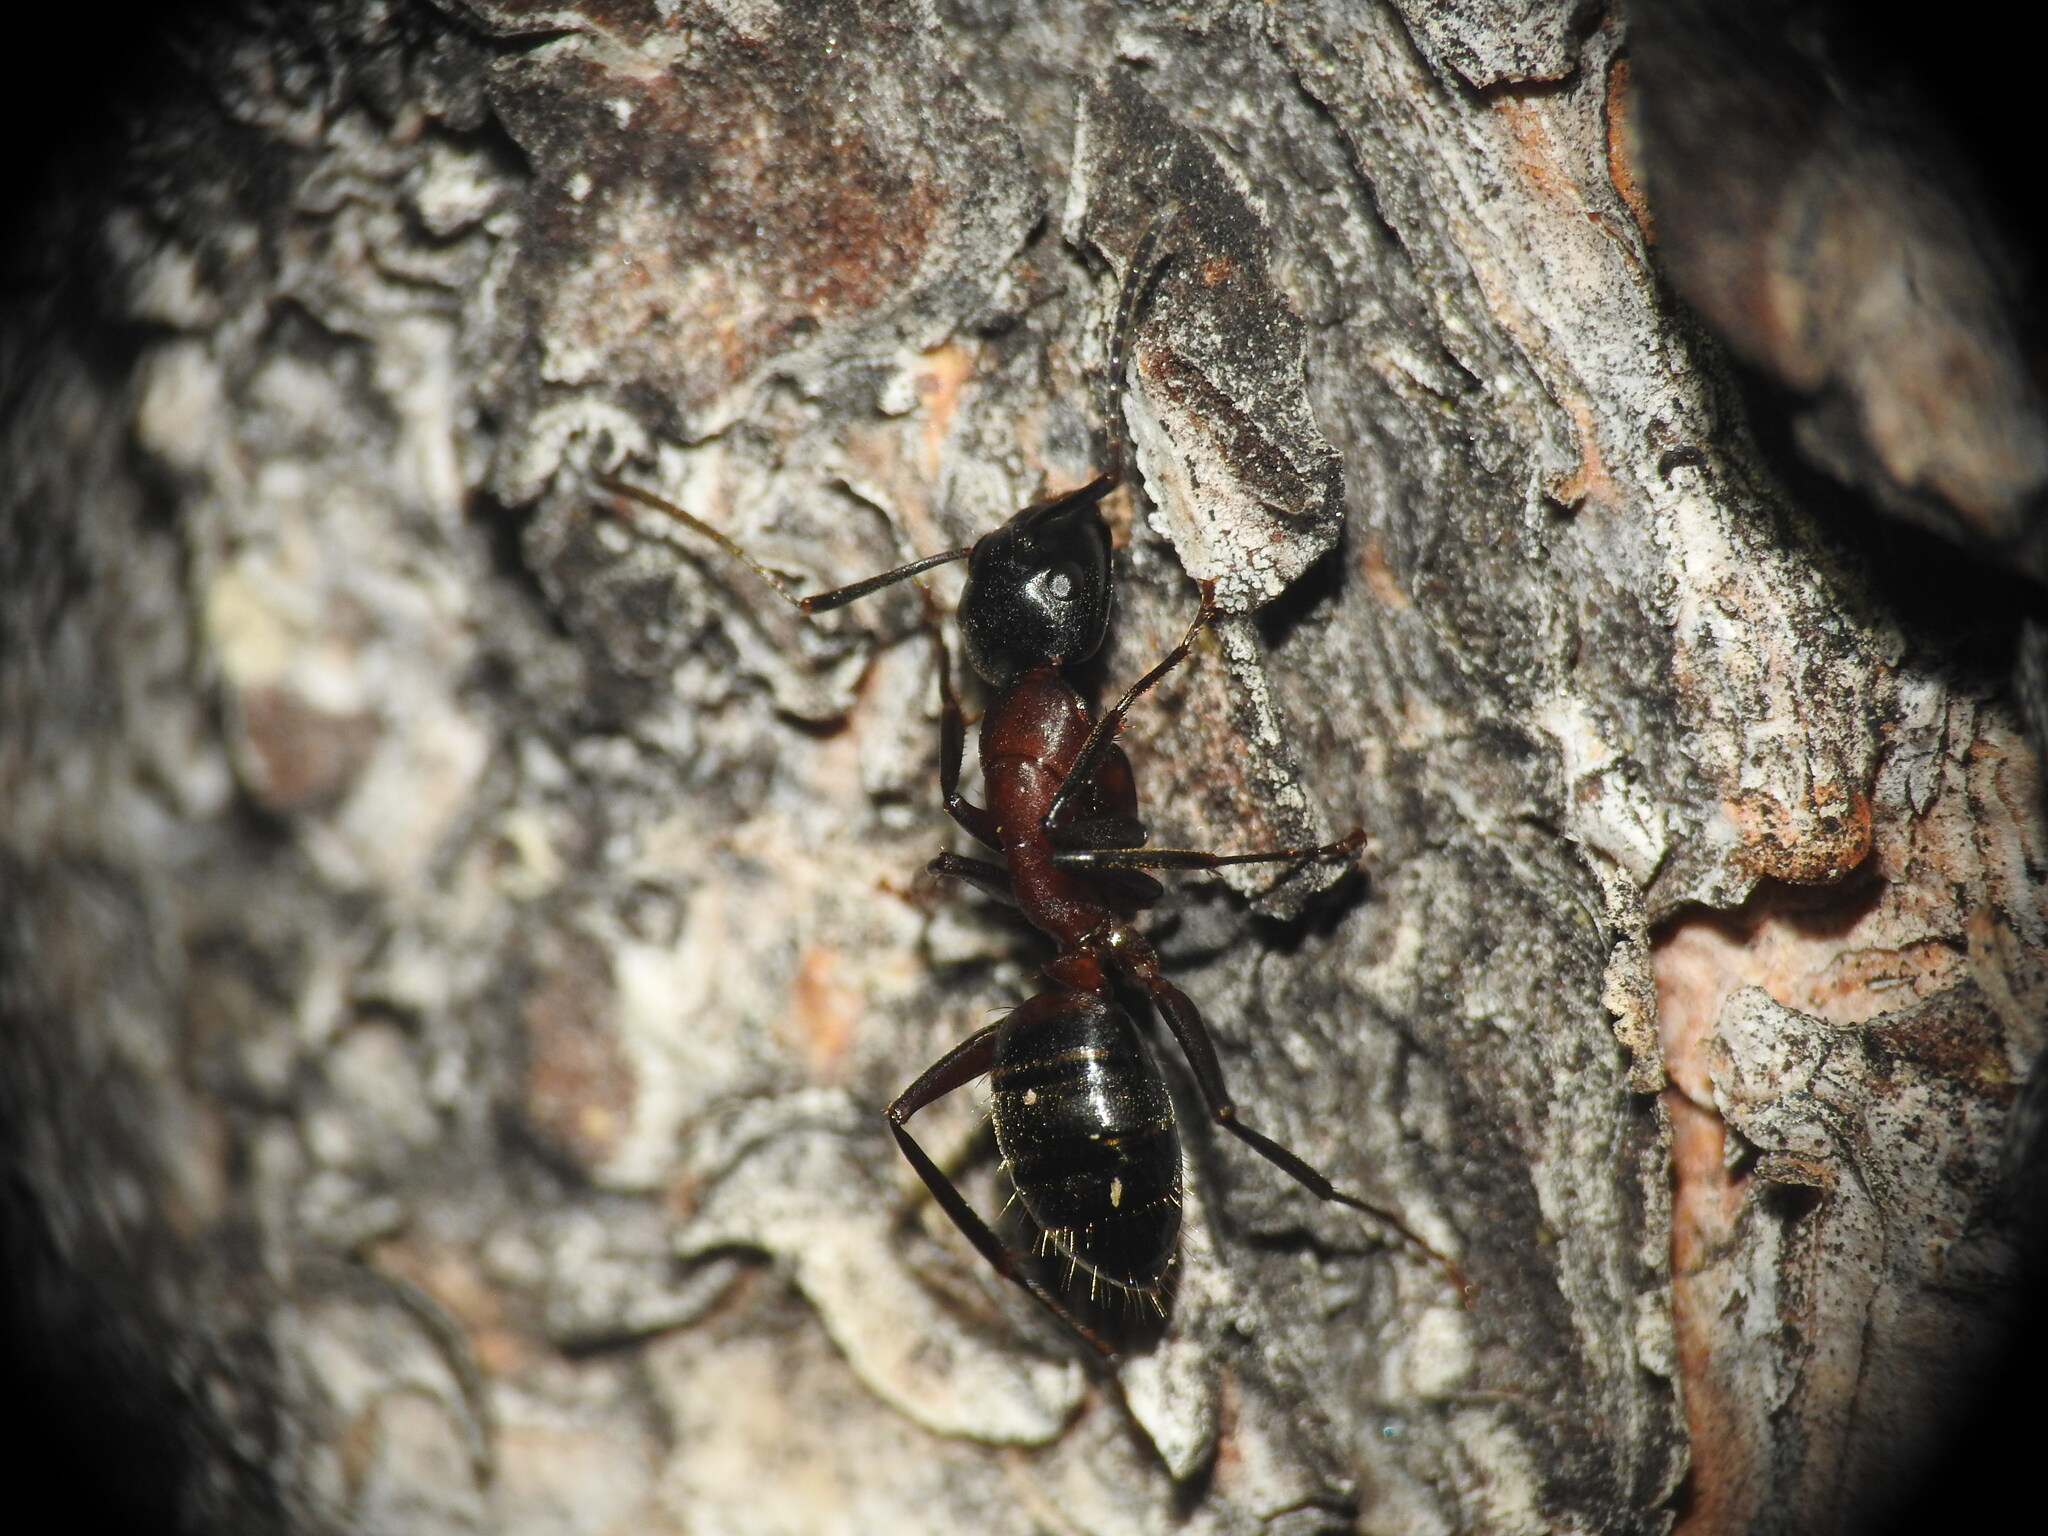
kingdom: Animalia
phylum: Arthropoda
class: Insecta
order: Hymenoptera
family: Formicidae
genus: Camponotus
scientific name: Camponotus ligniperdus
